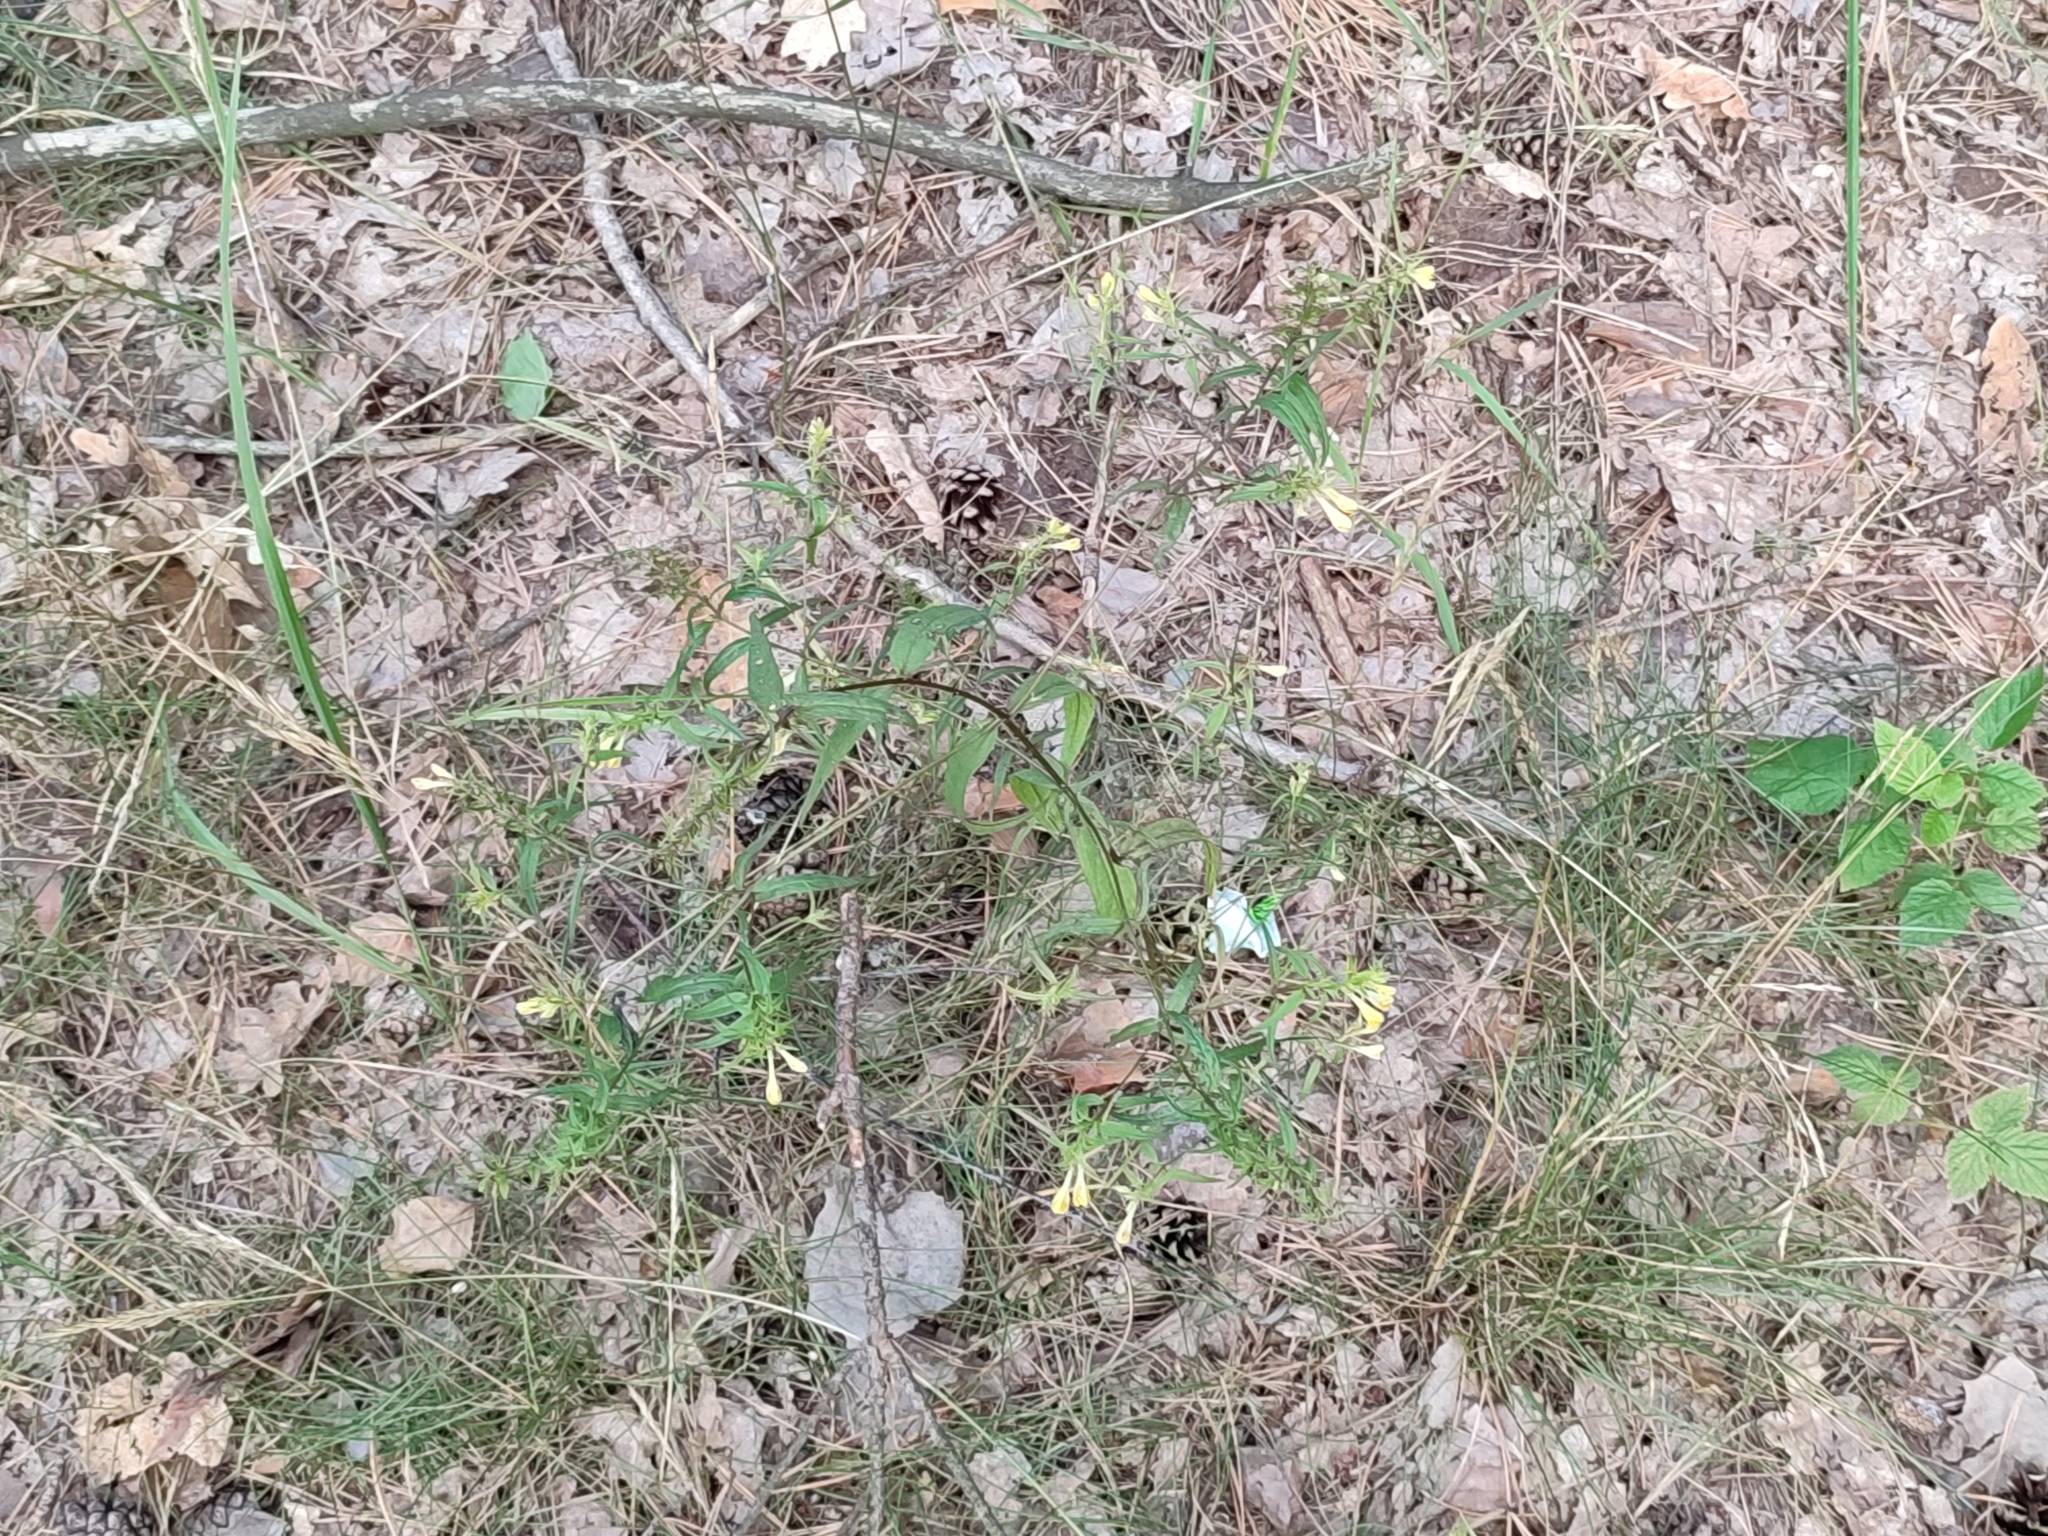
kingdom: Plantae
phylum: Tracheophyta
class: Magnoliopsida
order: Lamiales
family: Orobanchaceae
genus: Melampyrum
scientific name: Melampyrum pratense
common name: Common cow-wheat
